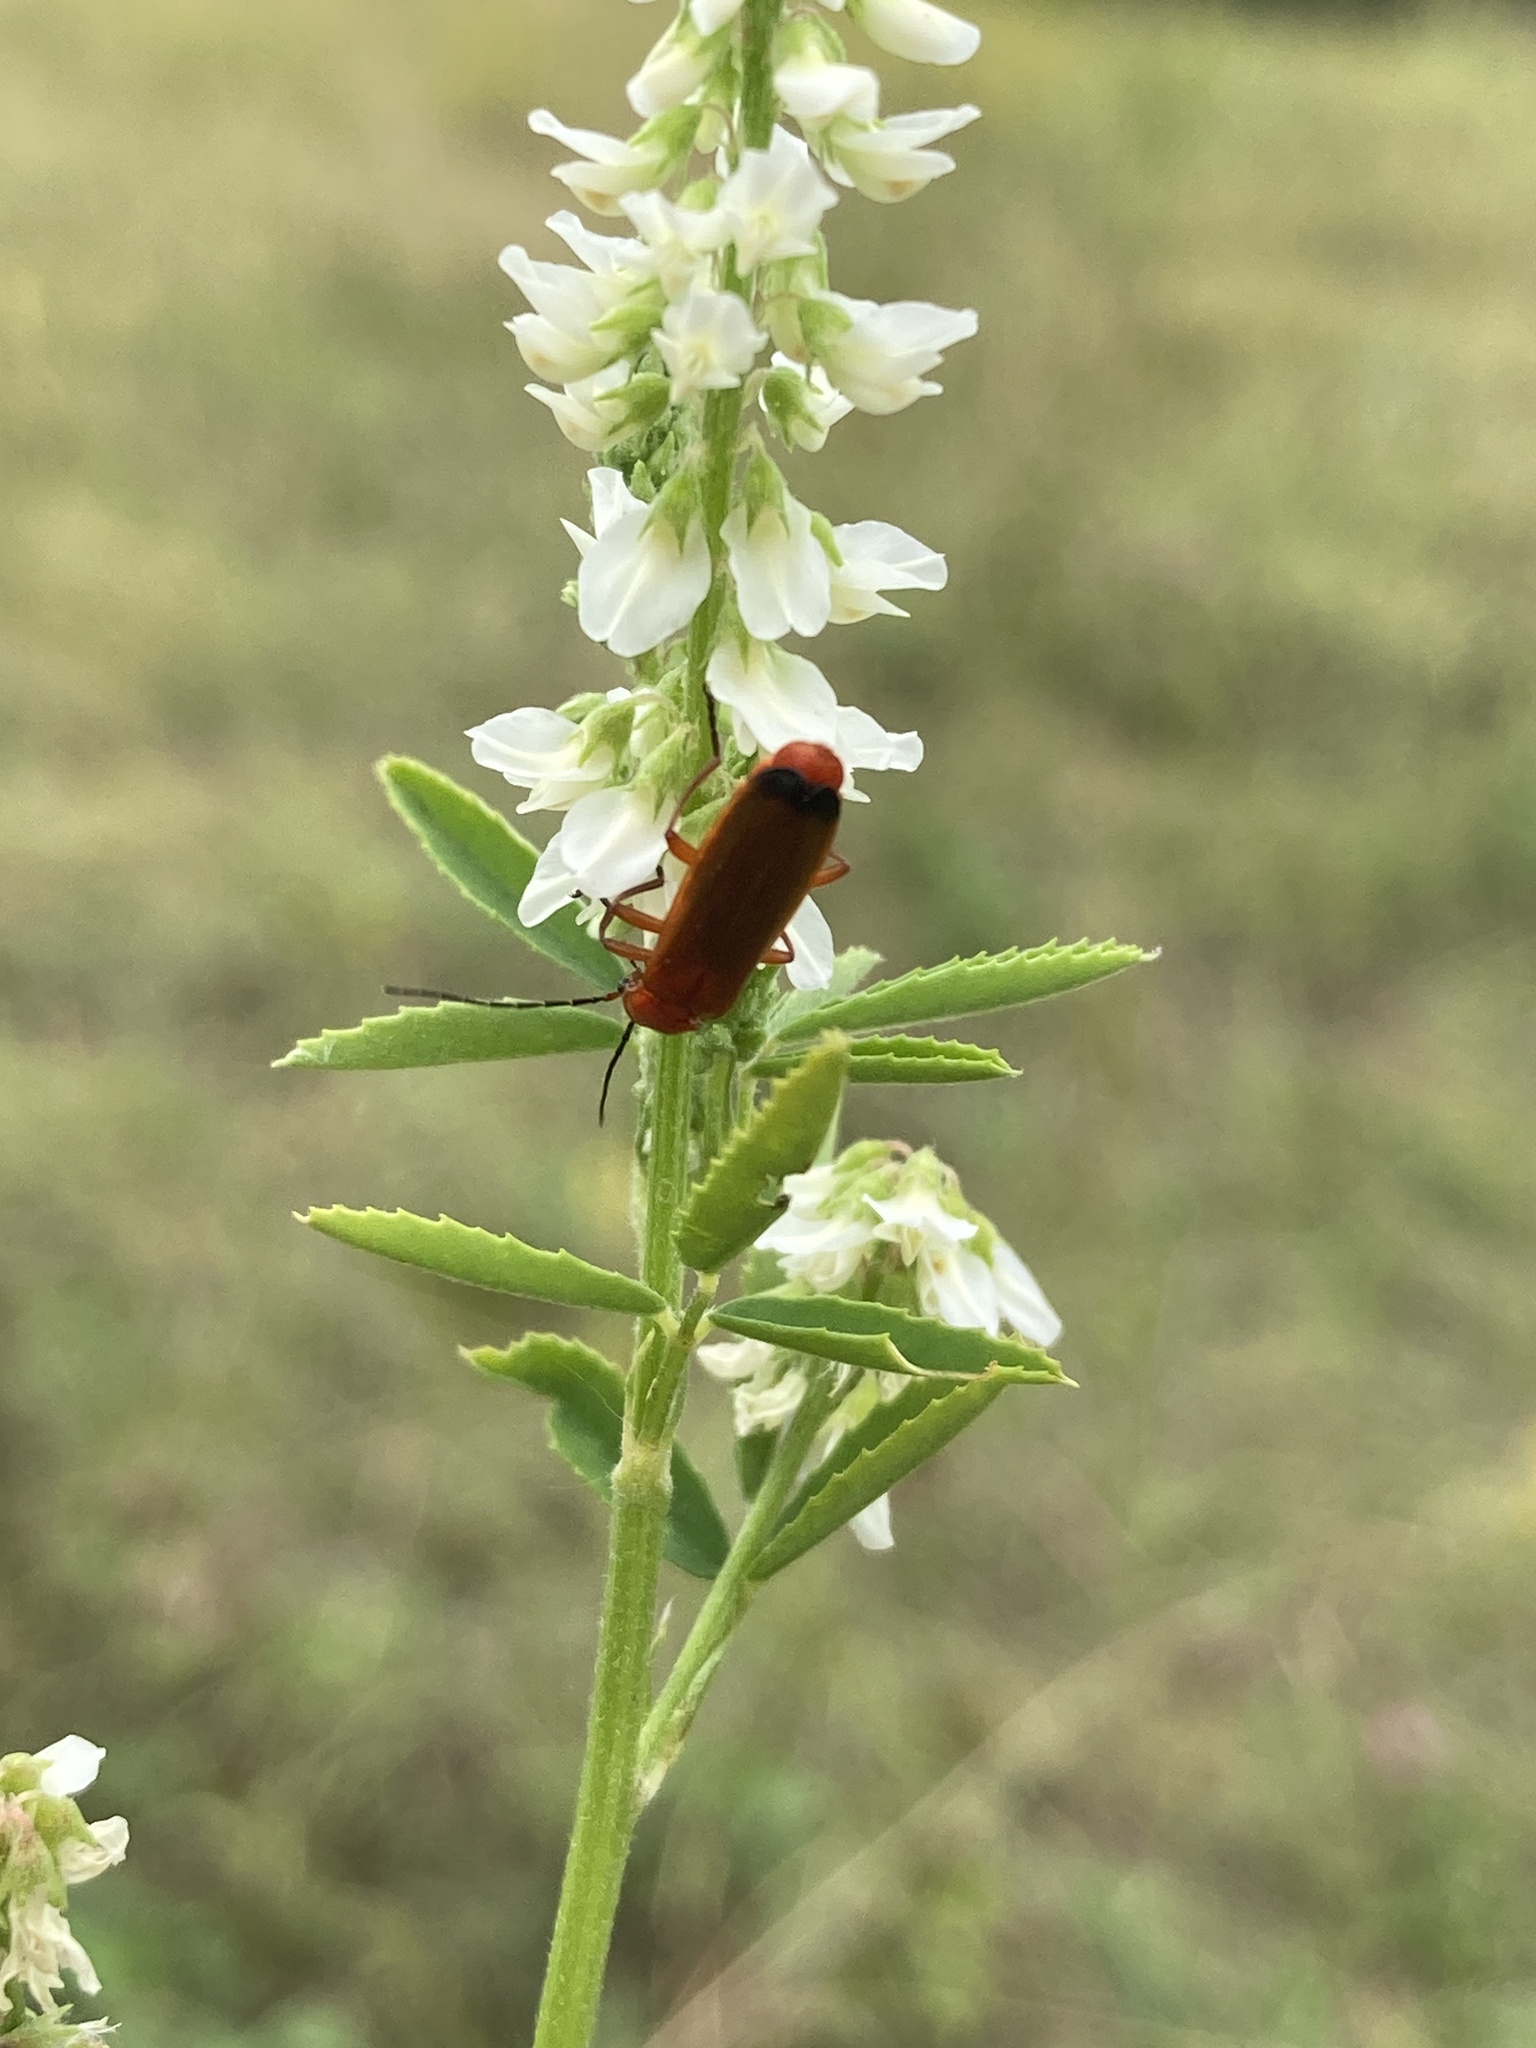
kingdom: Animalia
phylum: Arthropoda
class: Insecta
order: Coleoptera
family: Cantharidae
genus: Rhagonycha
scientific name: Rhagonycha fulva
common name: Common red soldier beetle
